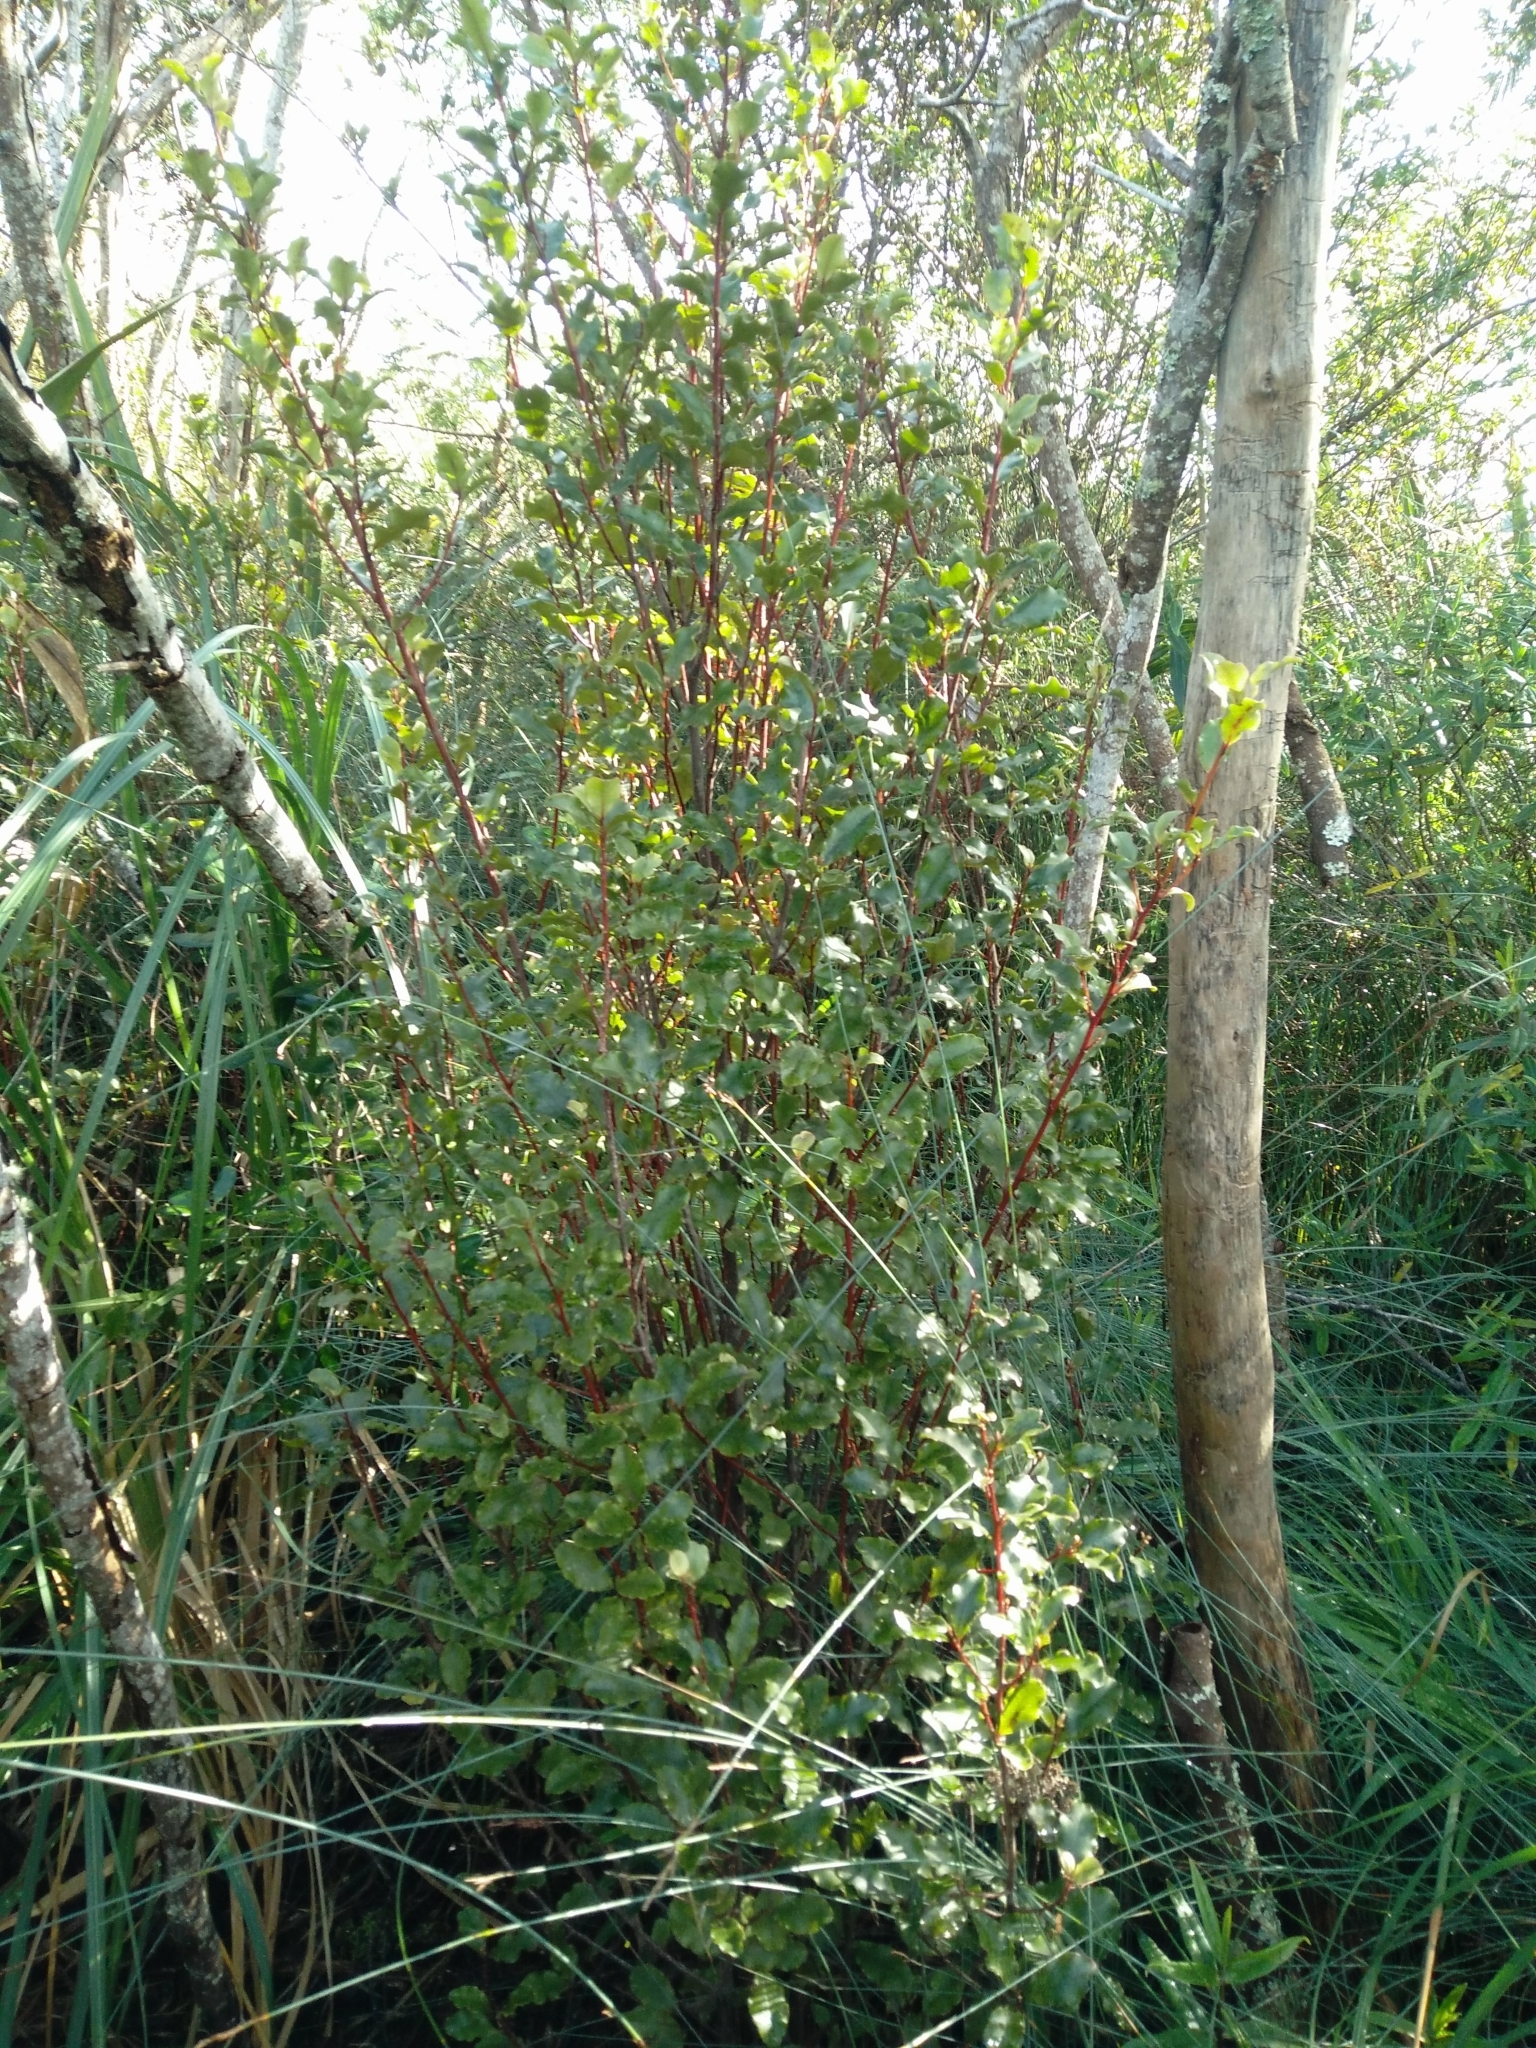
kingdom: Plantae
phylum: Tracheophyta
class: Magnoliopsida
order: Ericales
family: Primulaceae
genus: Myrsine
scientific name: Myrsine australis
